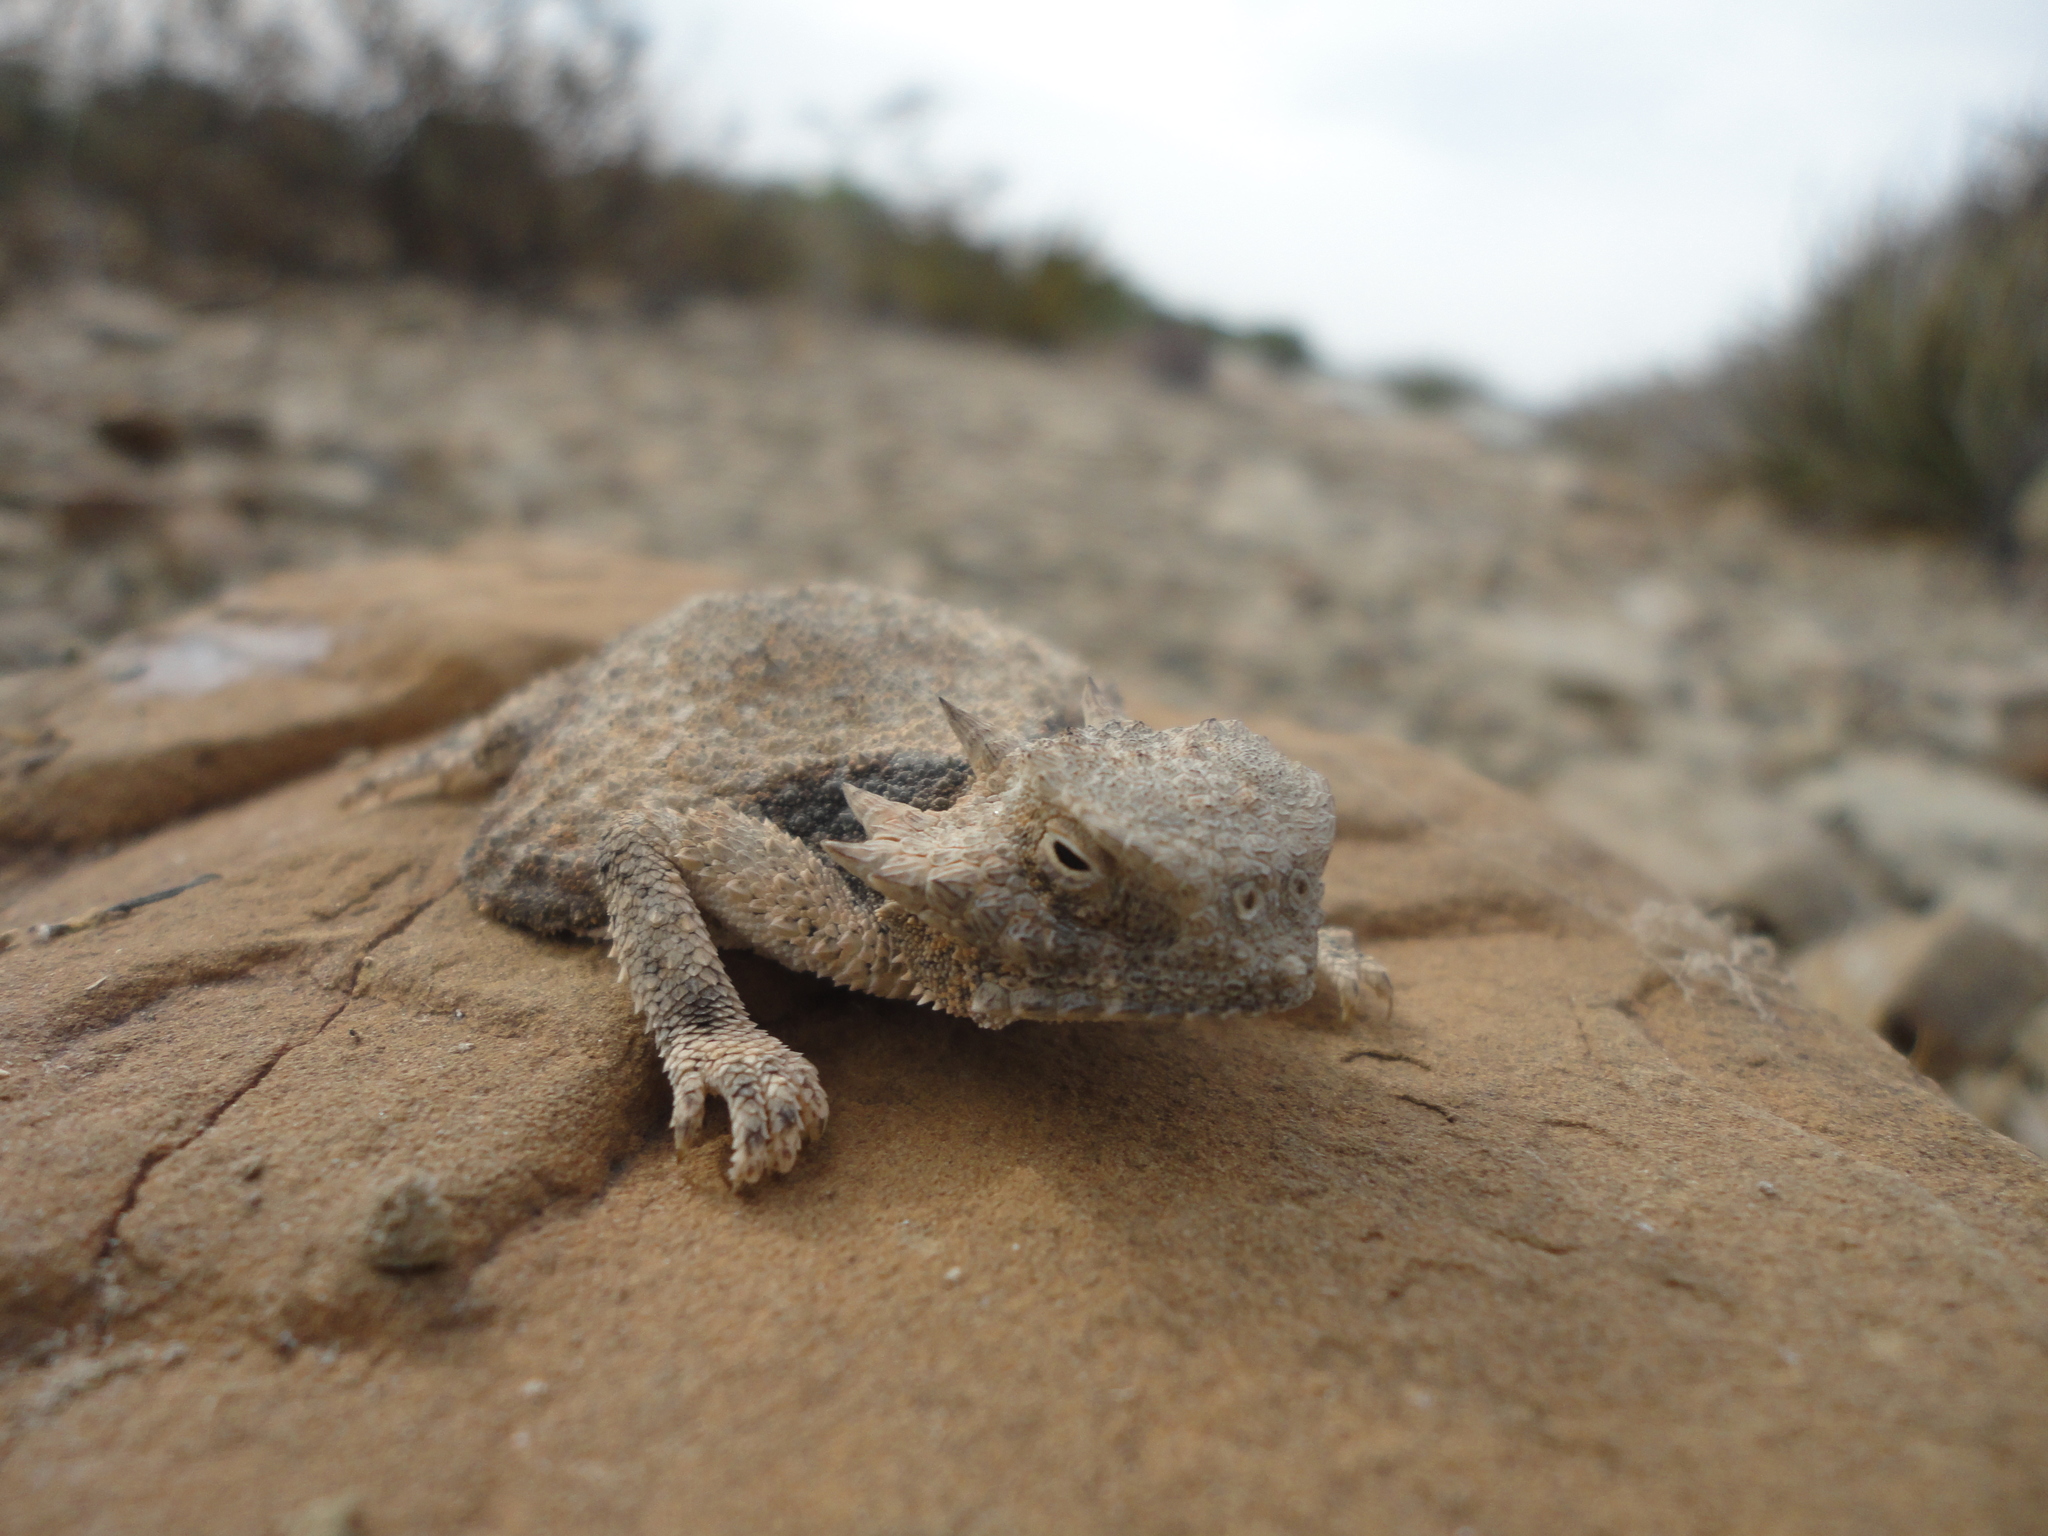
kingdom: Animalia
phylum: Chordata
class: Squamata
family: Phrynosomatidae
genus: Phrynosoma
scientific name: Phrynosoma modestum
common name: Roundtail horned lizard
